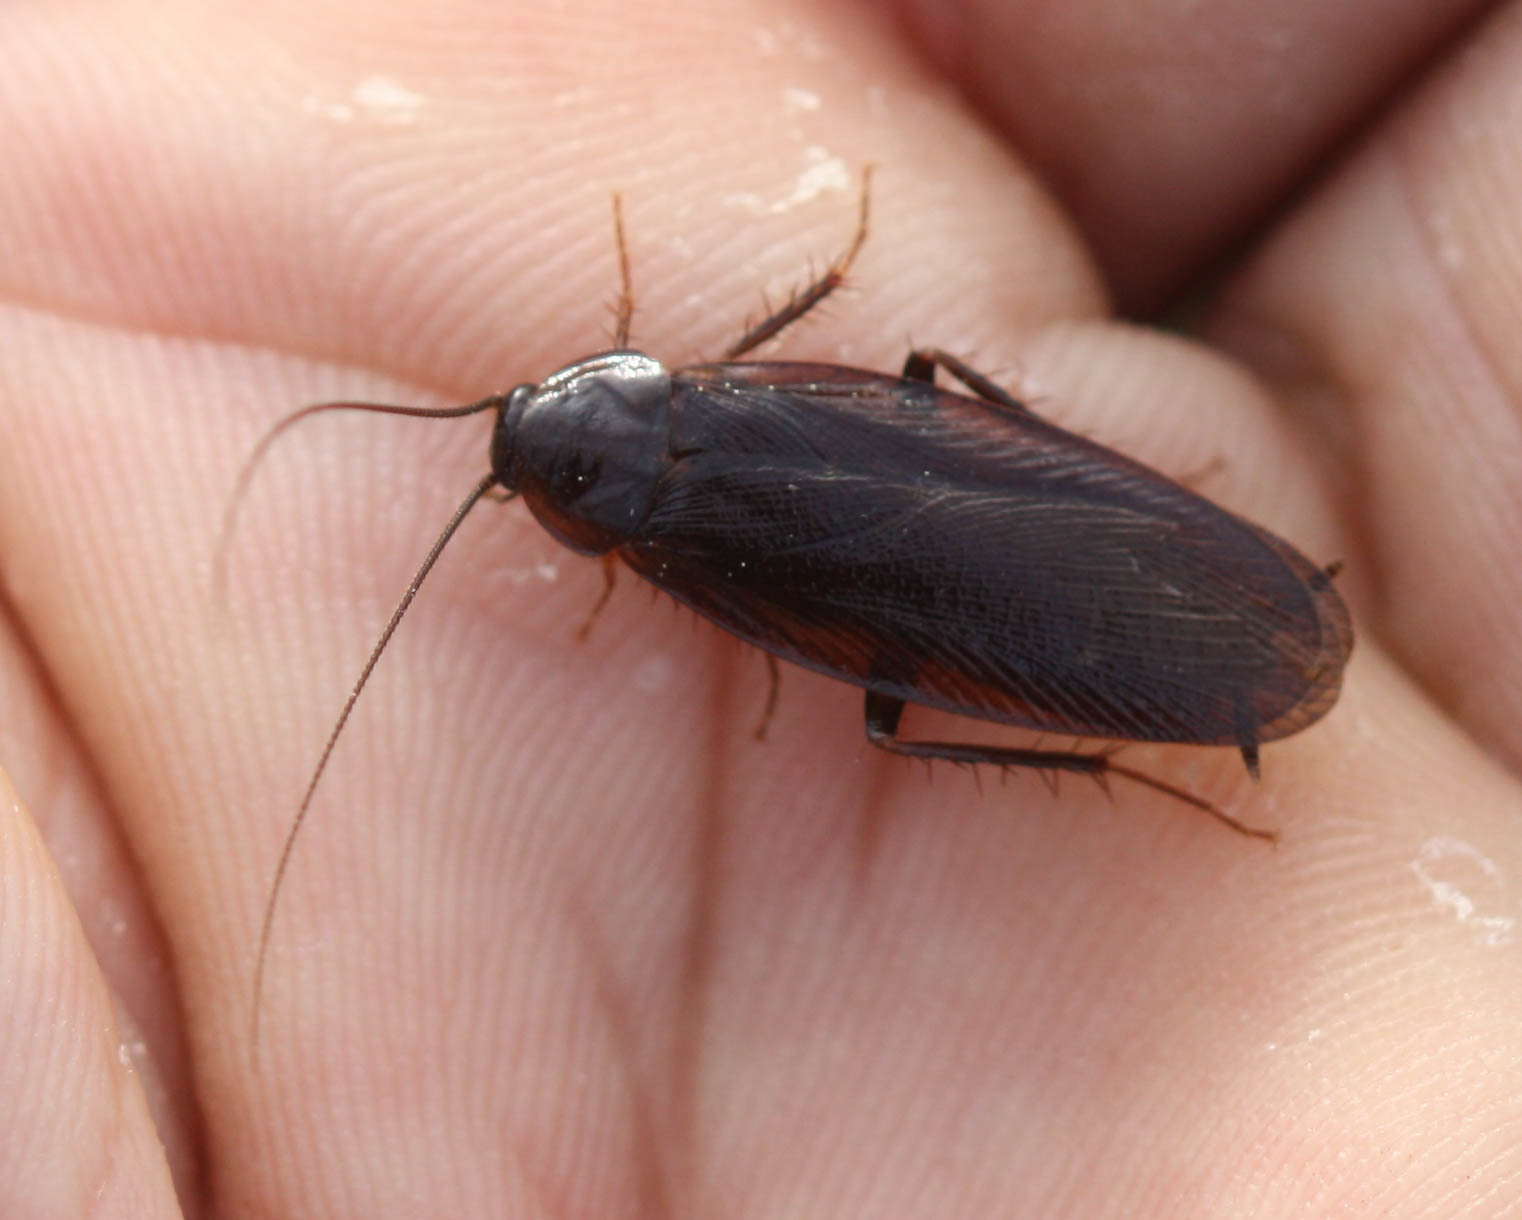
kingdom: Animalia
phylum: Arthropoda
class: Insecta
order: Blattodea
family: Ectobiidae
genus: Parcoblatta
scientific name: Parcoblatta americana
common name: Western wood cockroach
